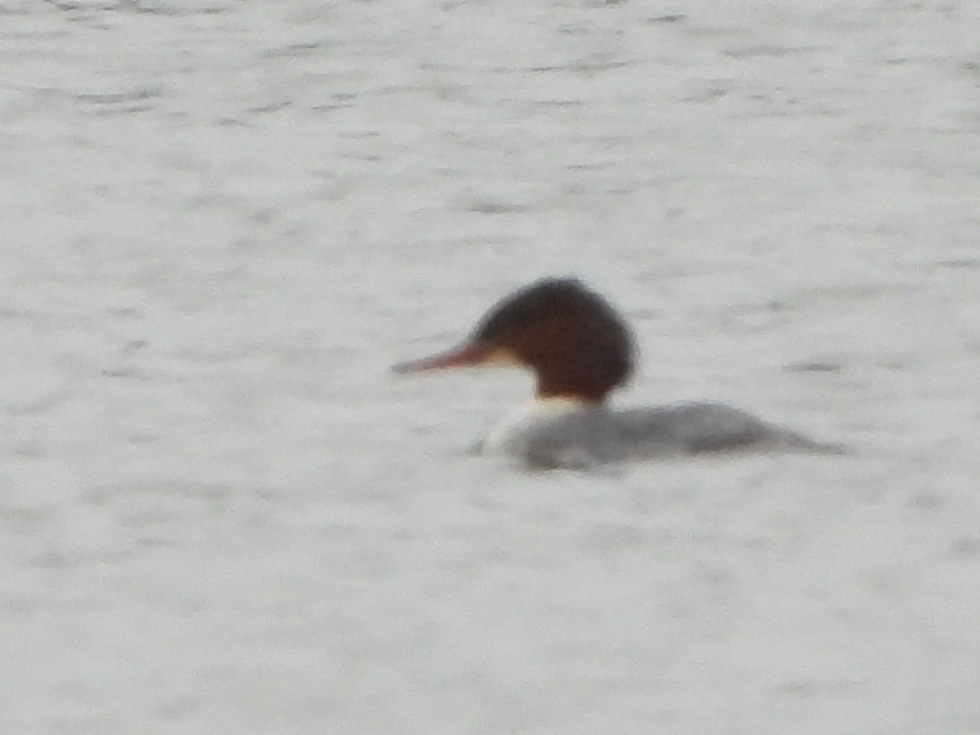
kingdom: Animalia
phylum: Chordata
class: Aves
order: Anseriformes
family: Anatidae
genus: Mergus
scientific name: Mergus merganser
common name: Common merganser
